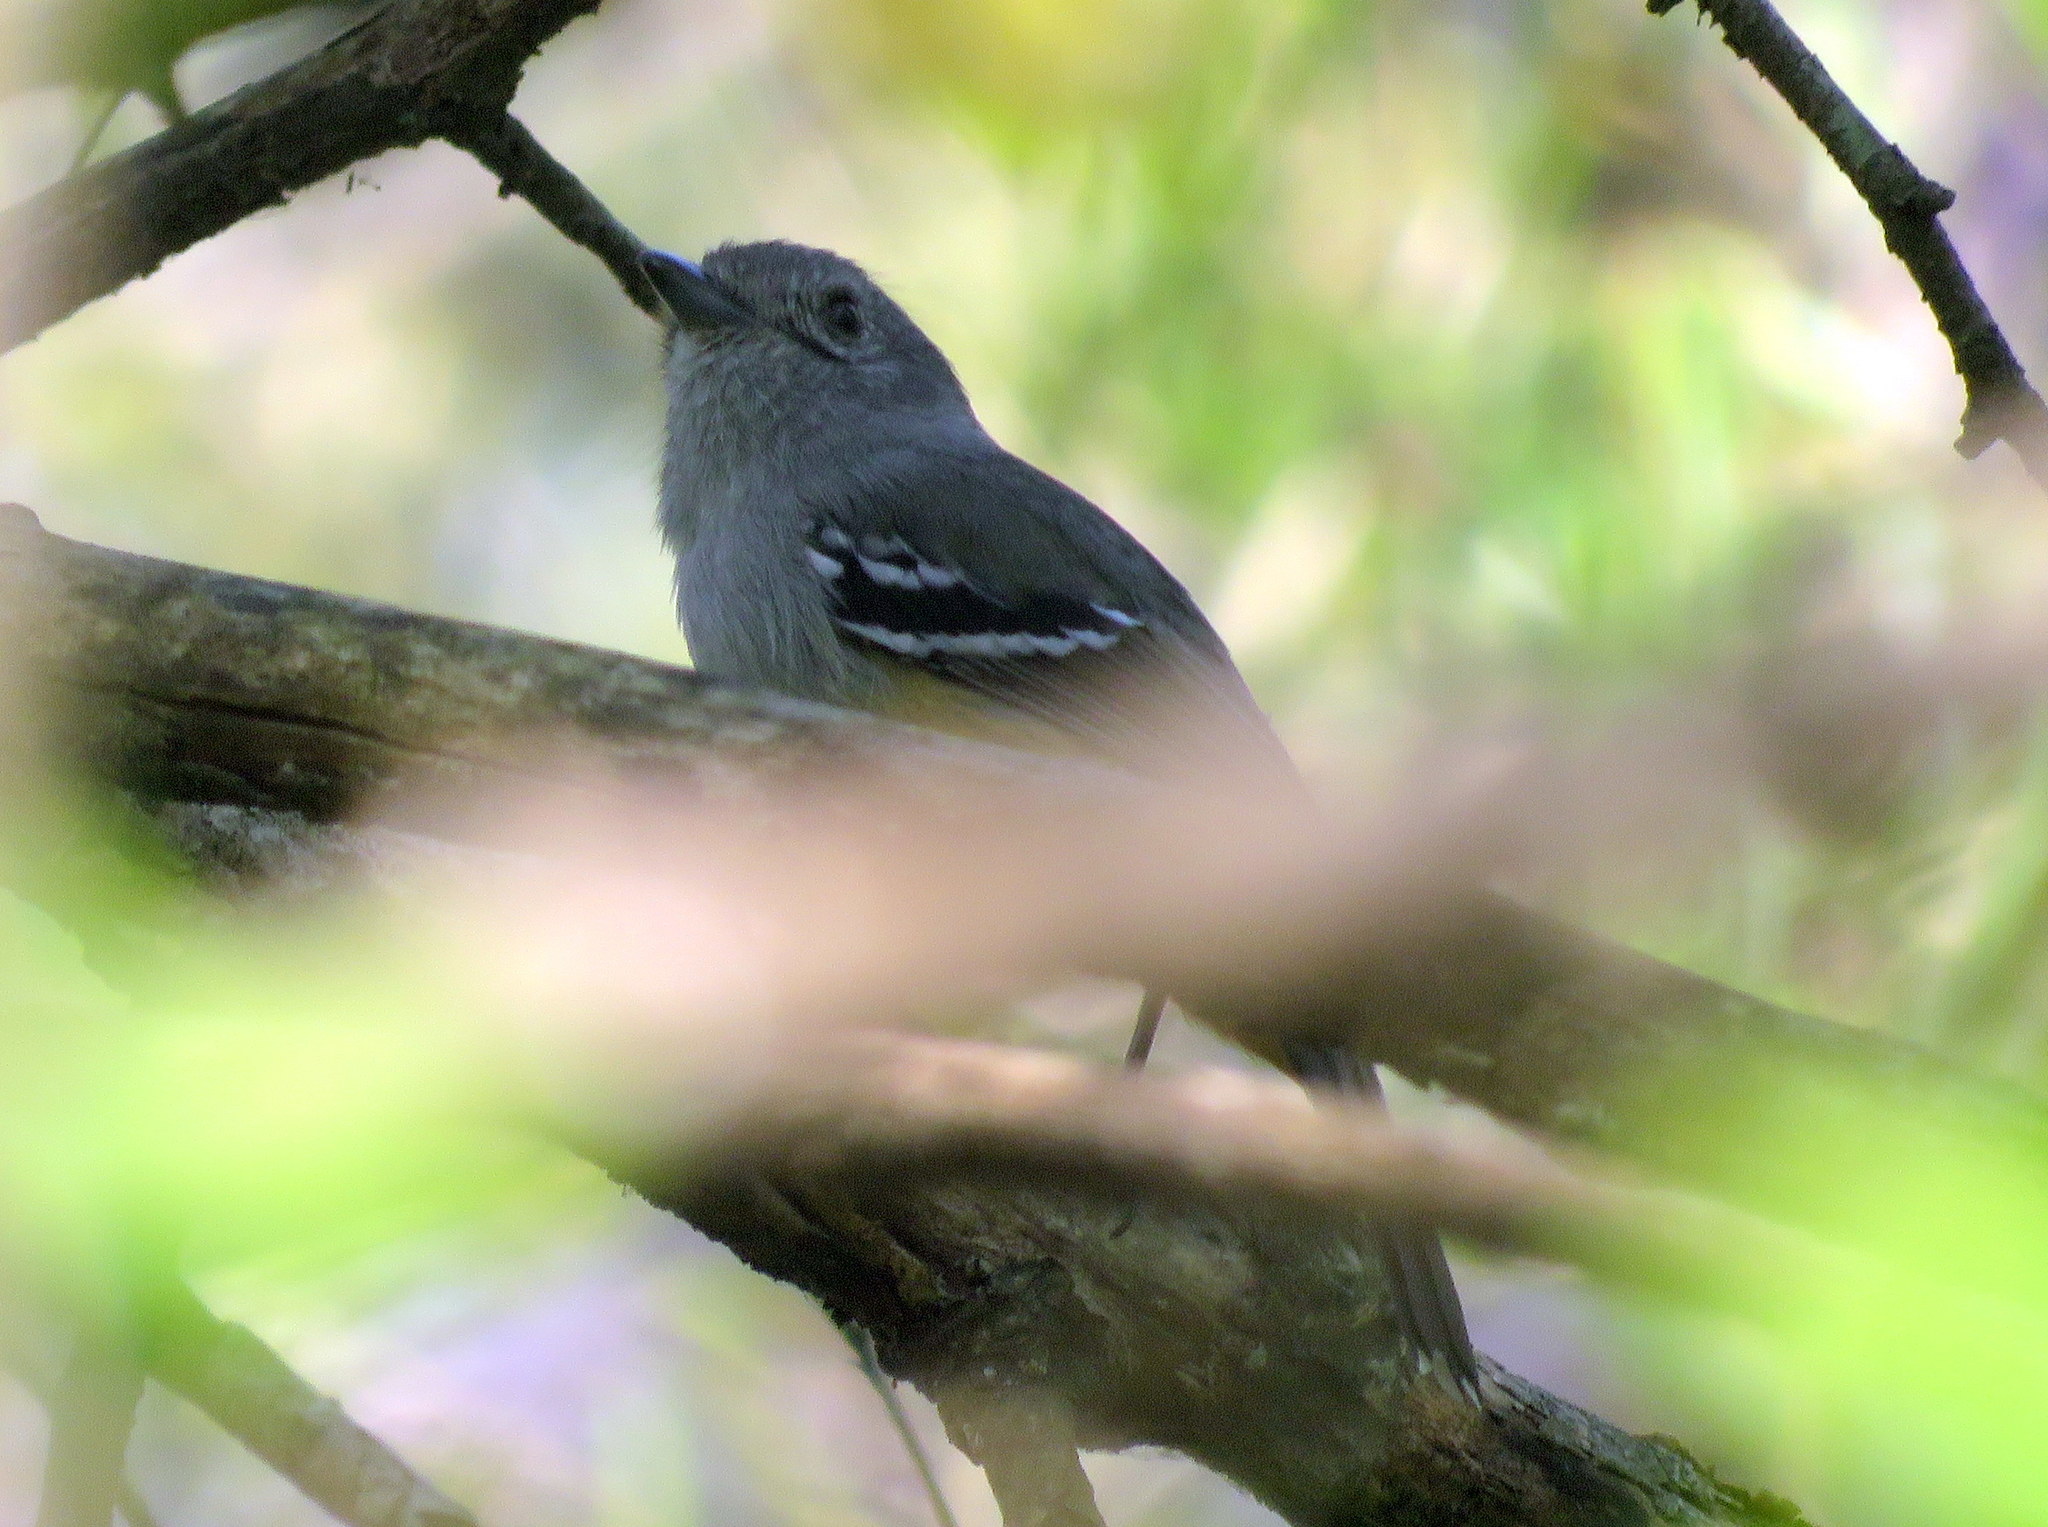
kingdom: Animalia
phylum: Chordata
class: Aves
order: Passeriformes
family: Thamnophilidae
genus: Thamnophilus
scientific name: Thamnophilus caerulescens
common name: Variable antshrike
